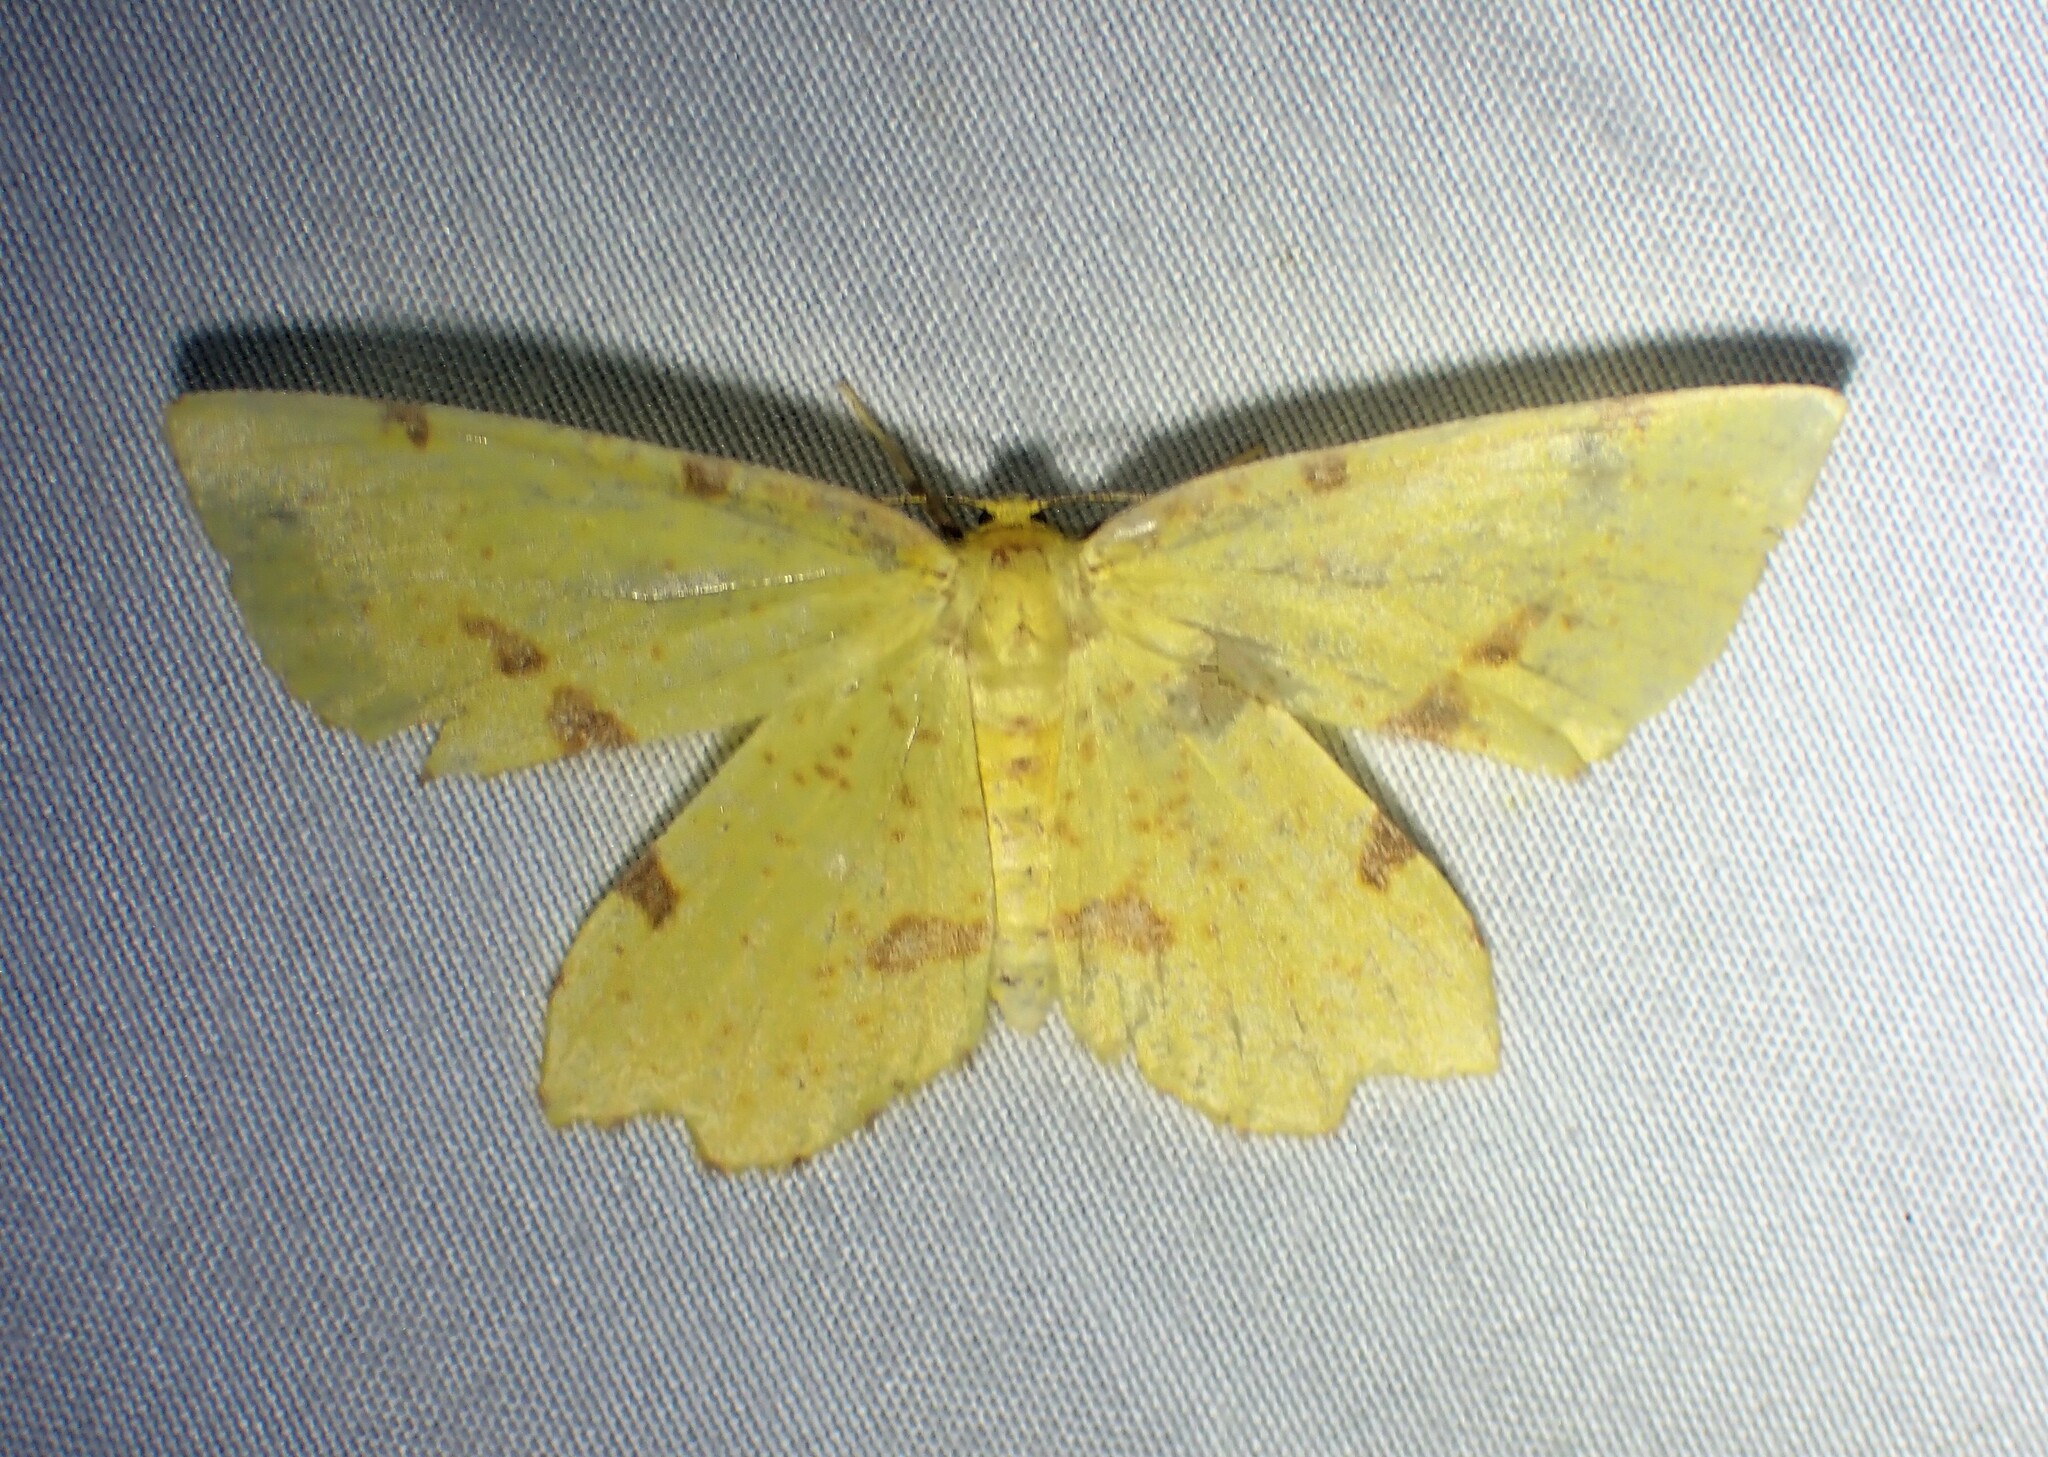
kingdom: Animalia
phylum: Arthropoda
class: Insecta
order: Lepidoptera
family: Geometridae
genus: Xanthotype
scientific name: Xanthotype
